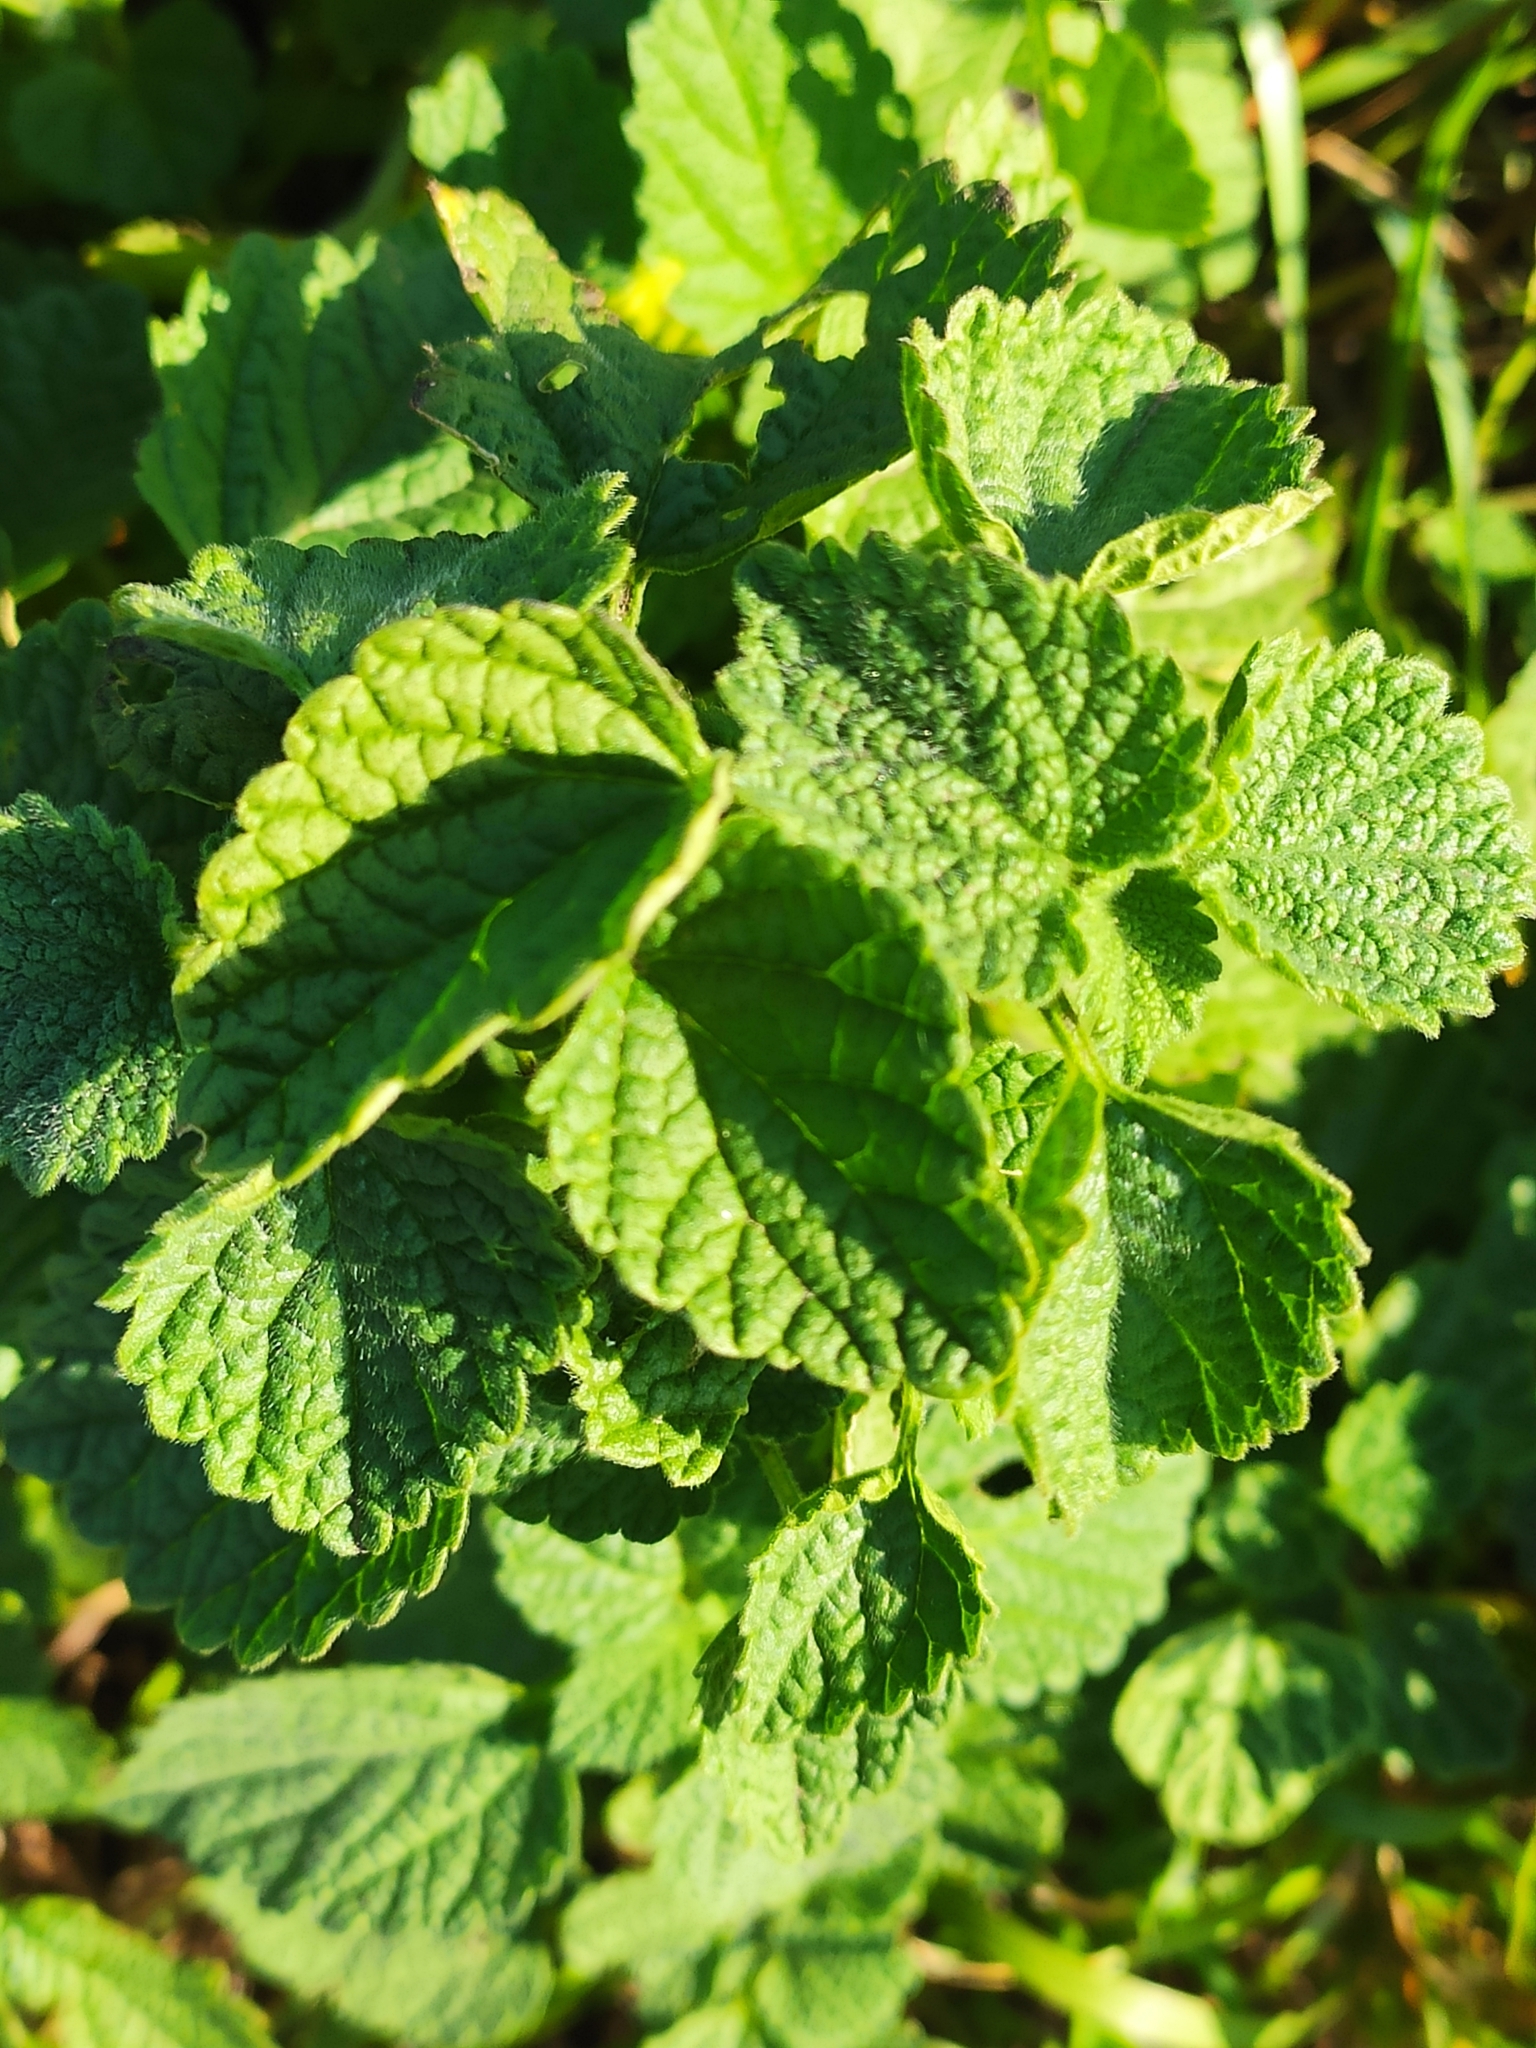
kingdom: Plantae
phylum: Tracheophyta
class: Magnoliopsida
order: Lamiales
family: Lamiaceae
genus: Ballota
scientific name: Ballota nigra
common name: Black horehound
